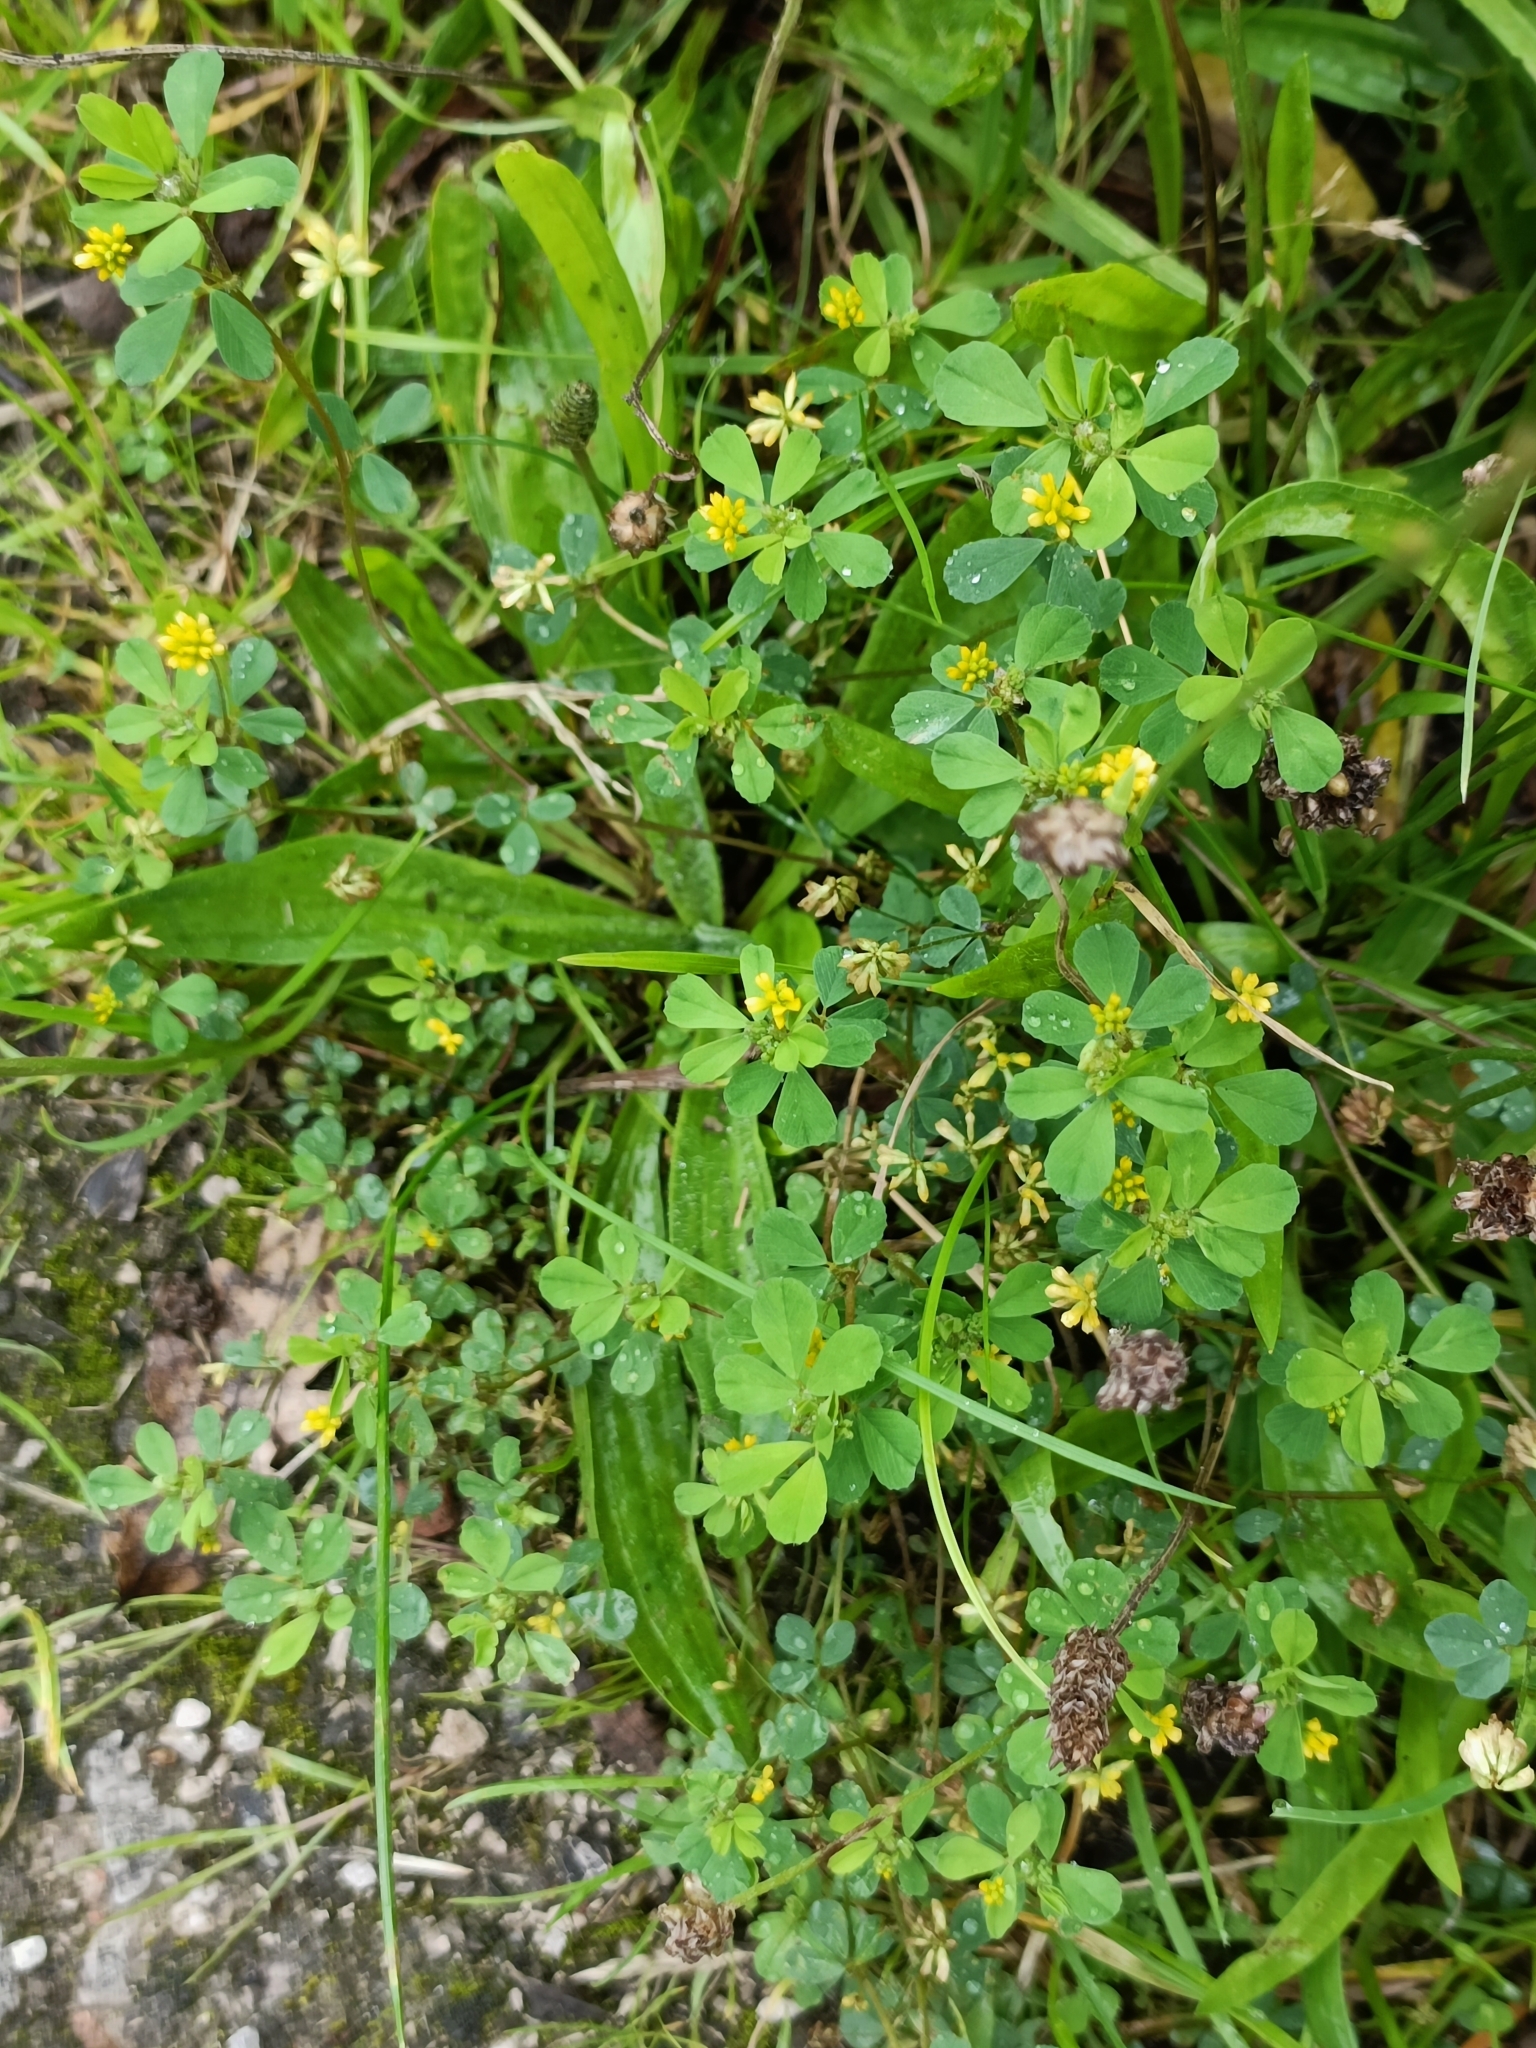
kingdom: Plantae
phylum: Tracheophyta
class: Magnoliopsida
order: Fabales
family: Fabaceae
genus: Trifolium
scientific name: Trifolium dubium
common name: Suckling clover
